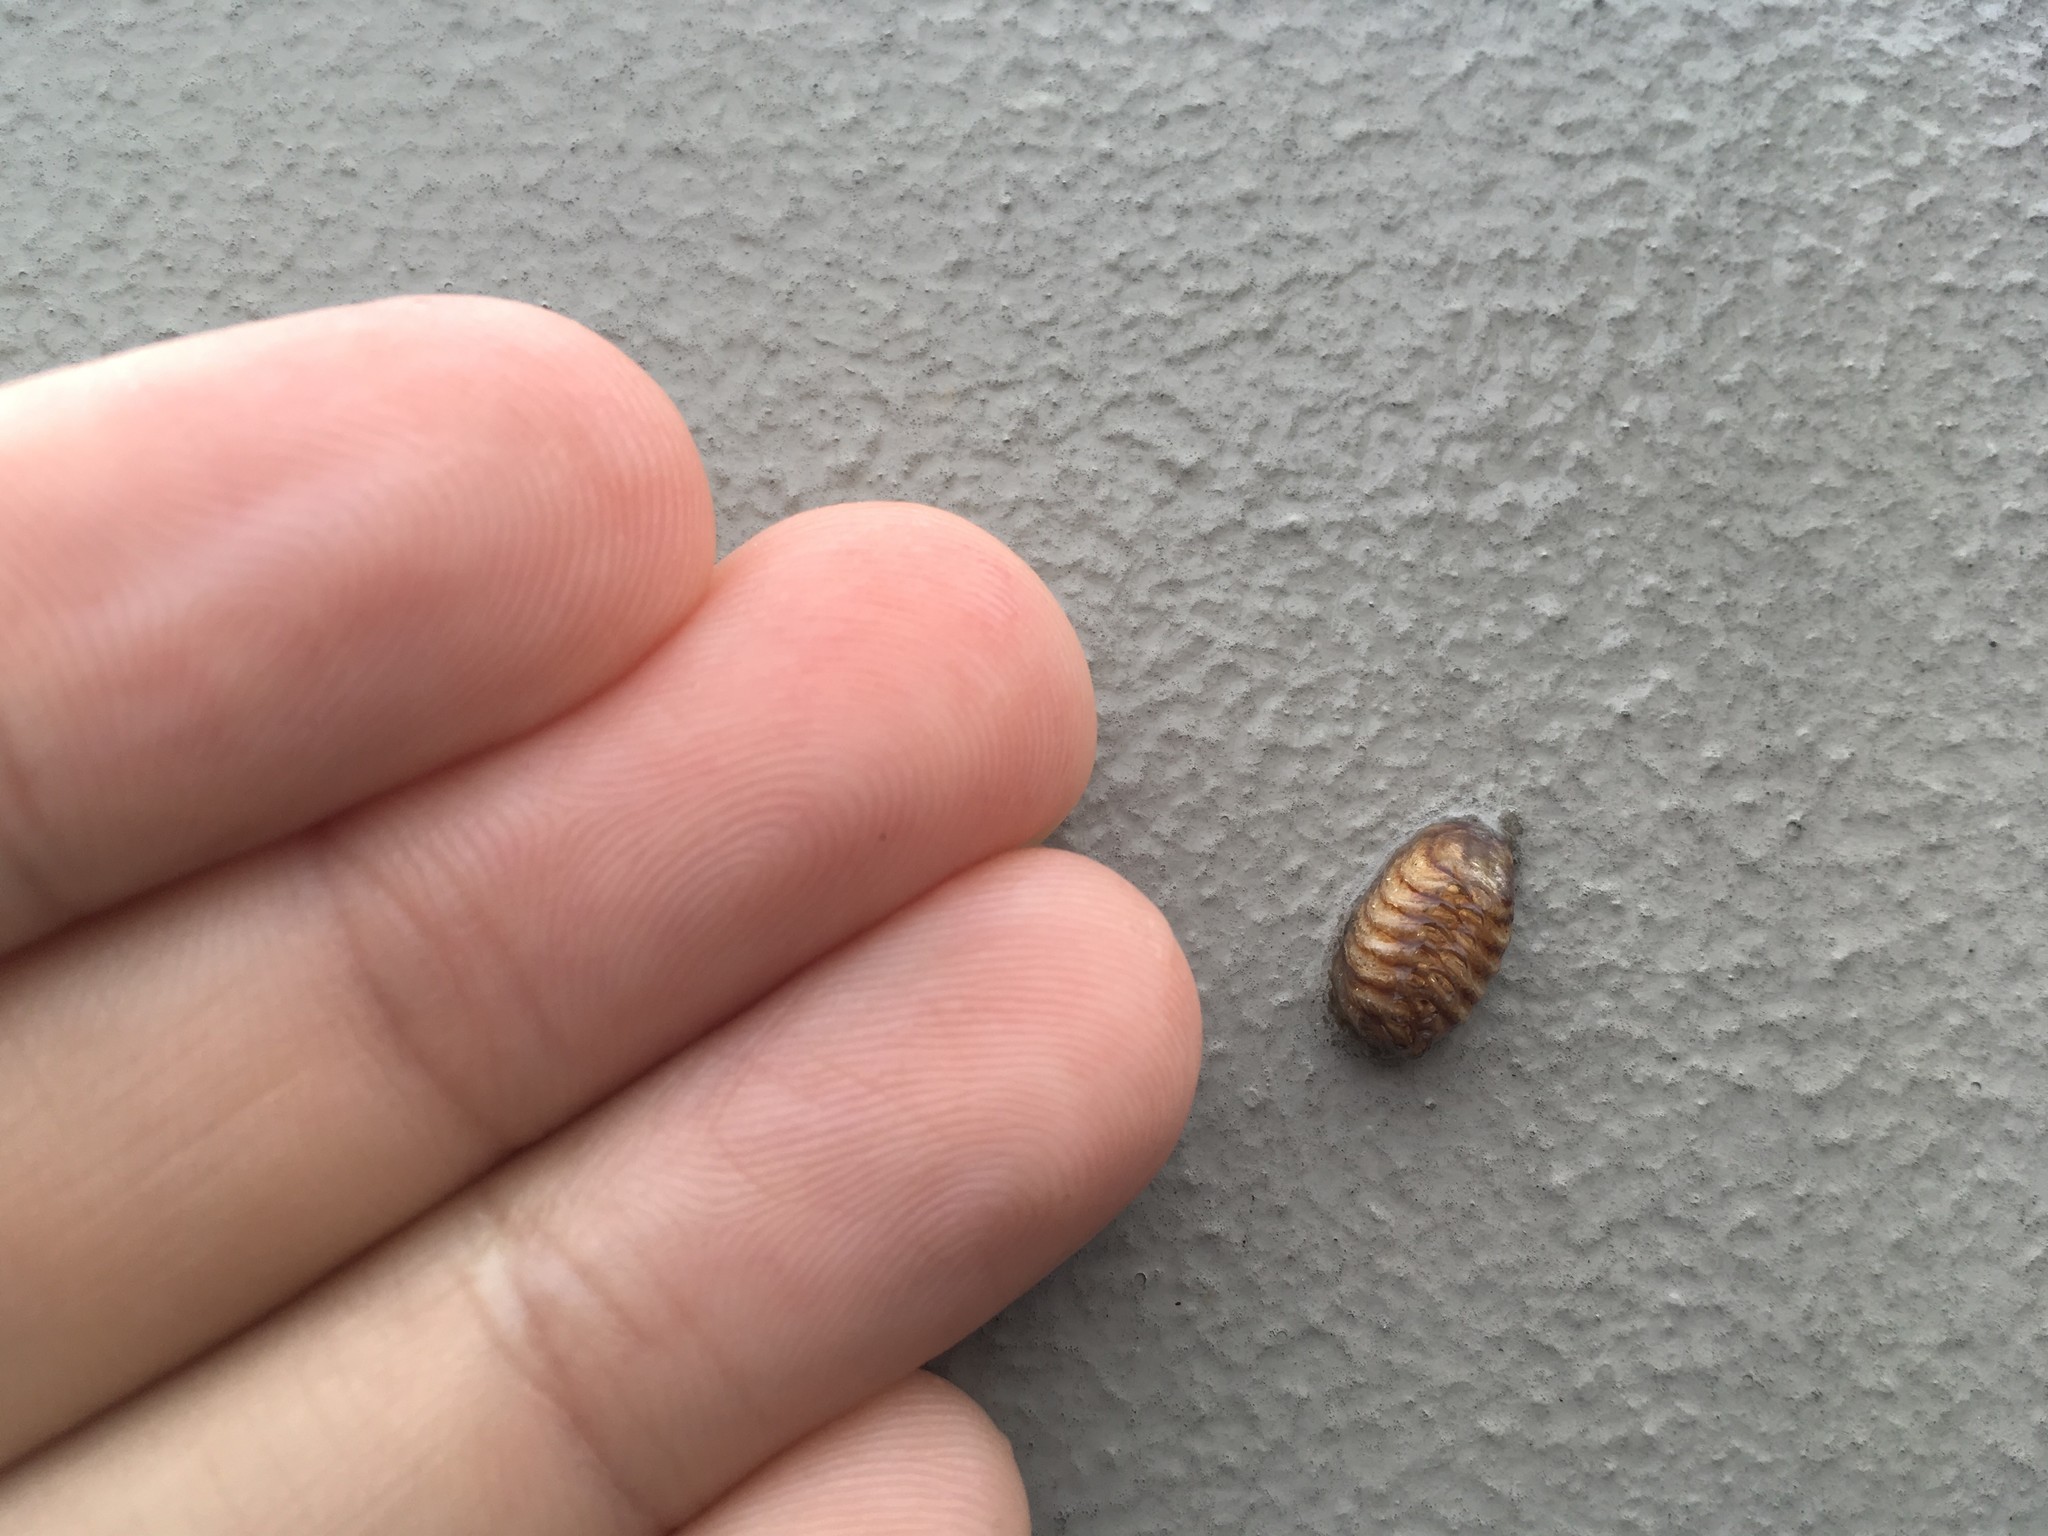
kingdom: Animalia
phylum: Arthropoda
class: Insecta
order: Mantodea
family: Mantidae
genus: Orthodera
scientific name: Orthodera novaezealandiae
